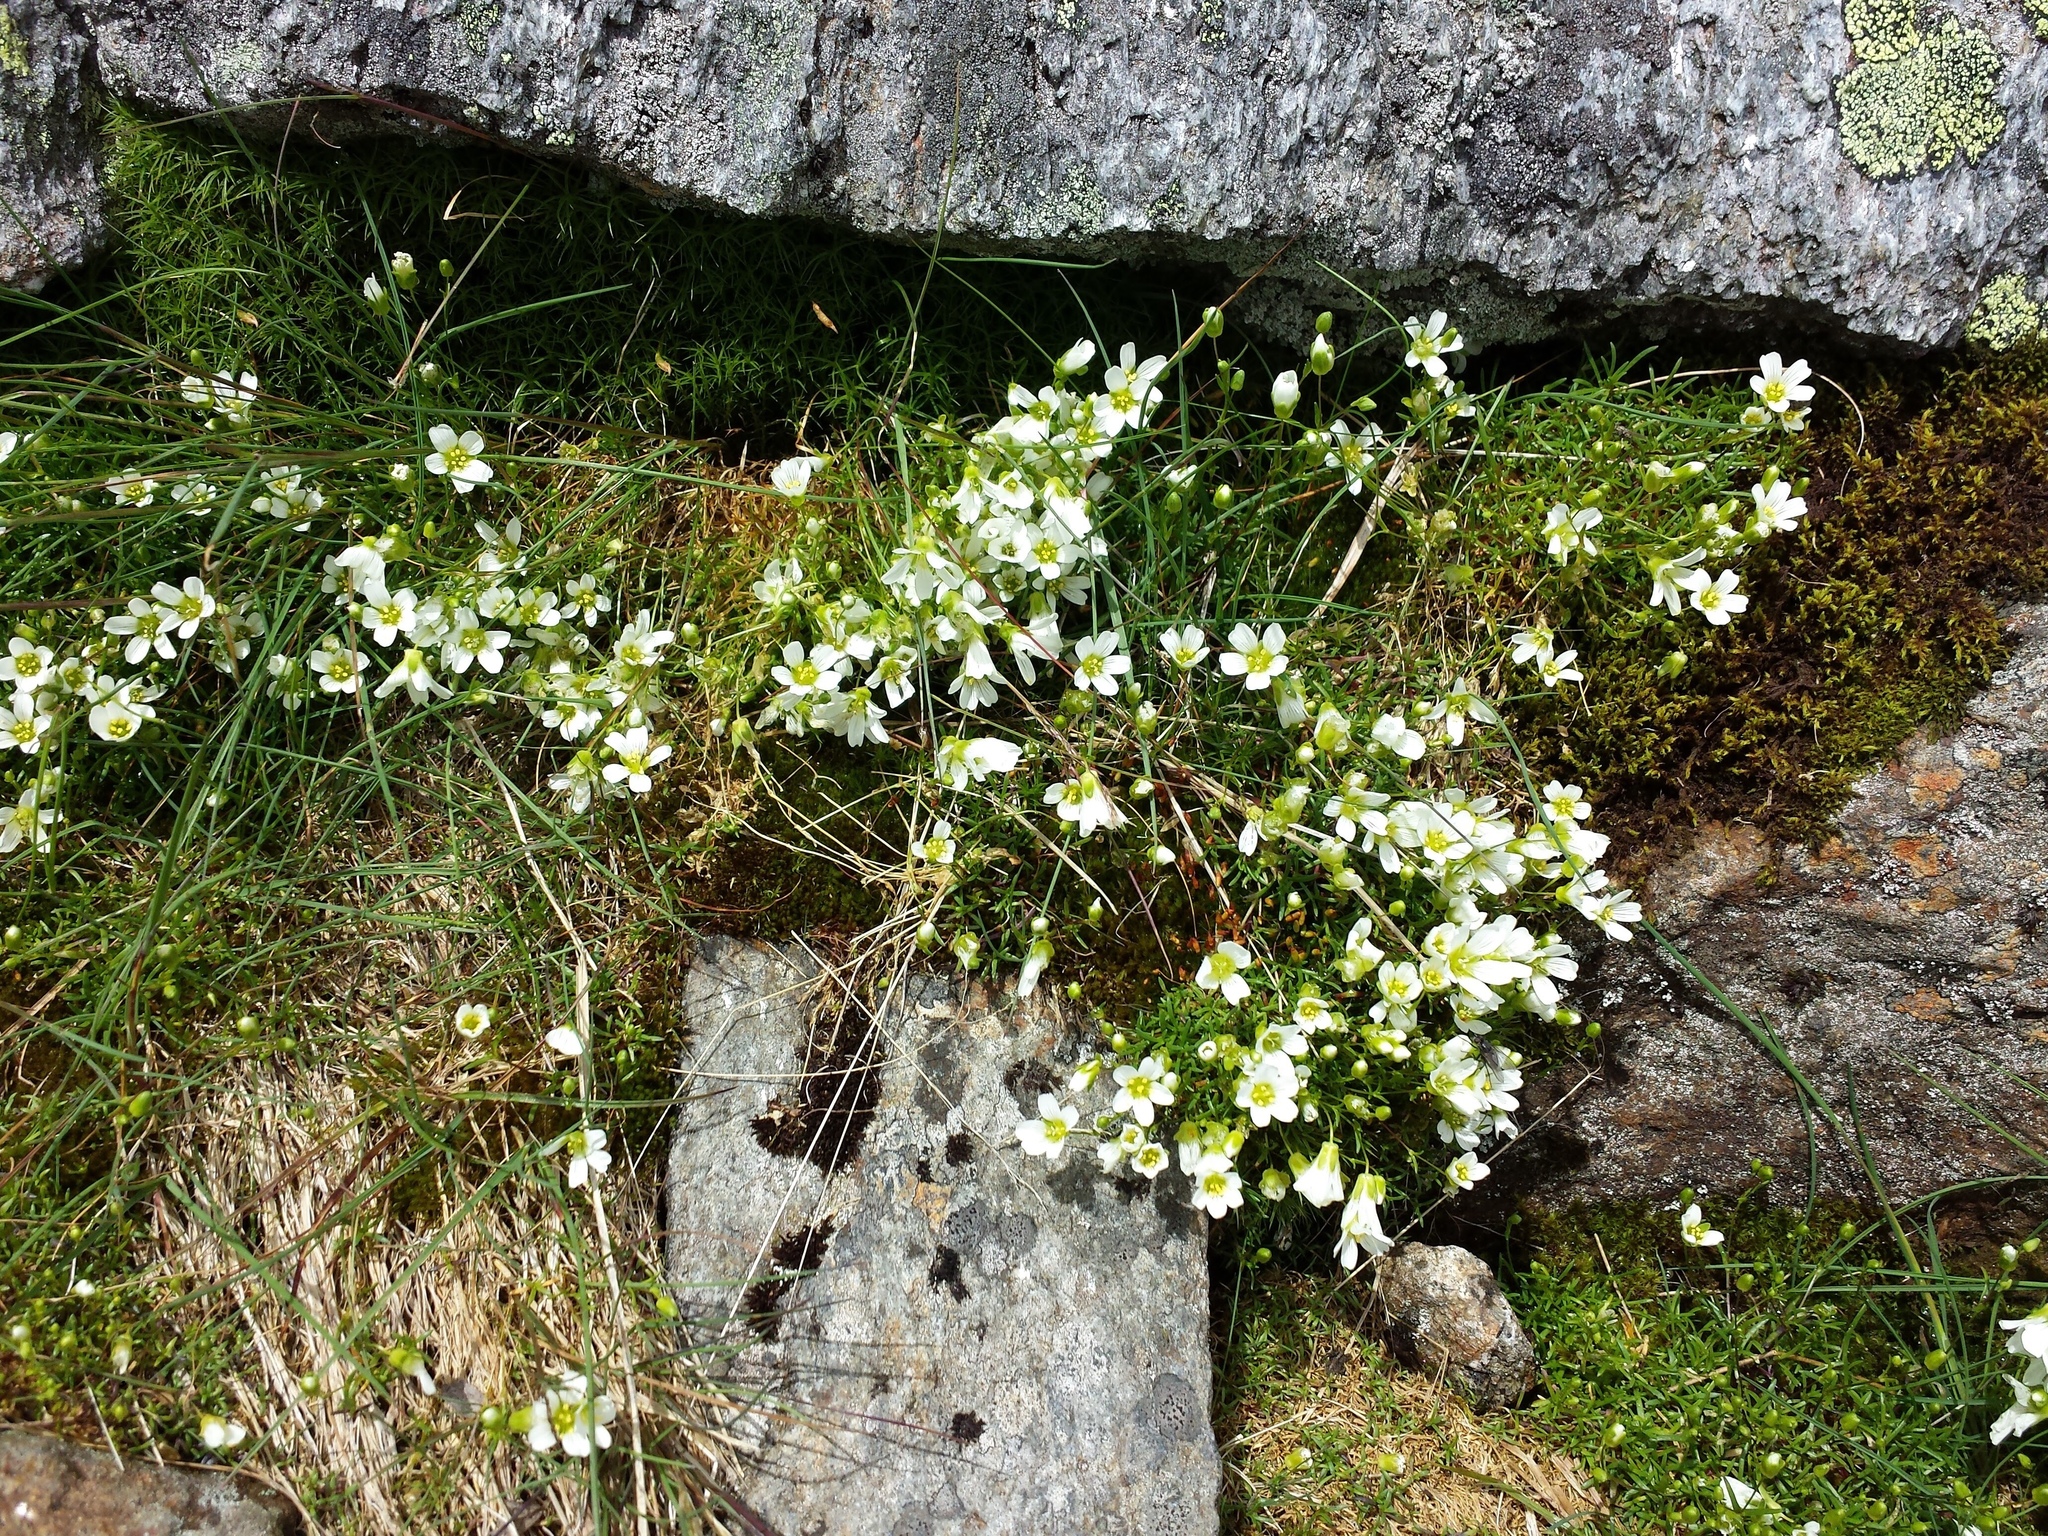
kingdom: Plantae
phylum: Tracheophyta
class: Magnoliopsida
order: Caryophyllales
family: Caryophyllaceae
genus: Geocarpon
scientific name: Geocarpon groenlandicum
